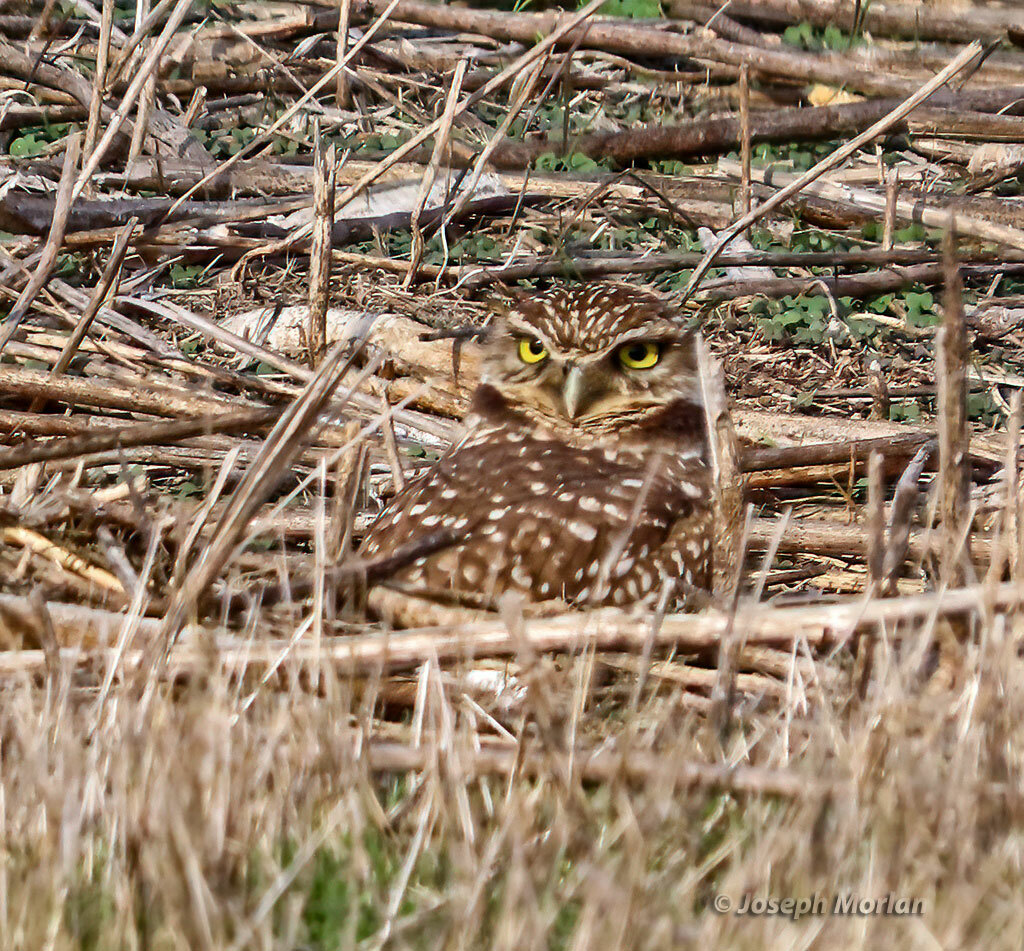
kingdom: Animalia
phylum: Chordata
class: Aves
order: Strigiformes
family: Strigidae
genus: Athene
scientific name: Athene cunicularia
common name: Burrowing owl
